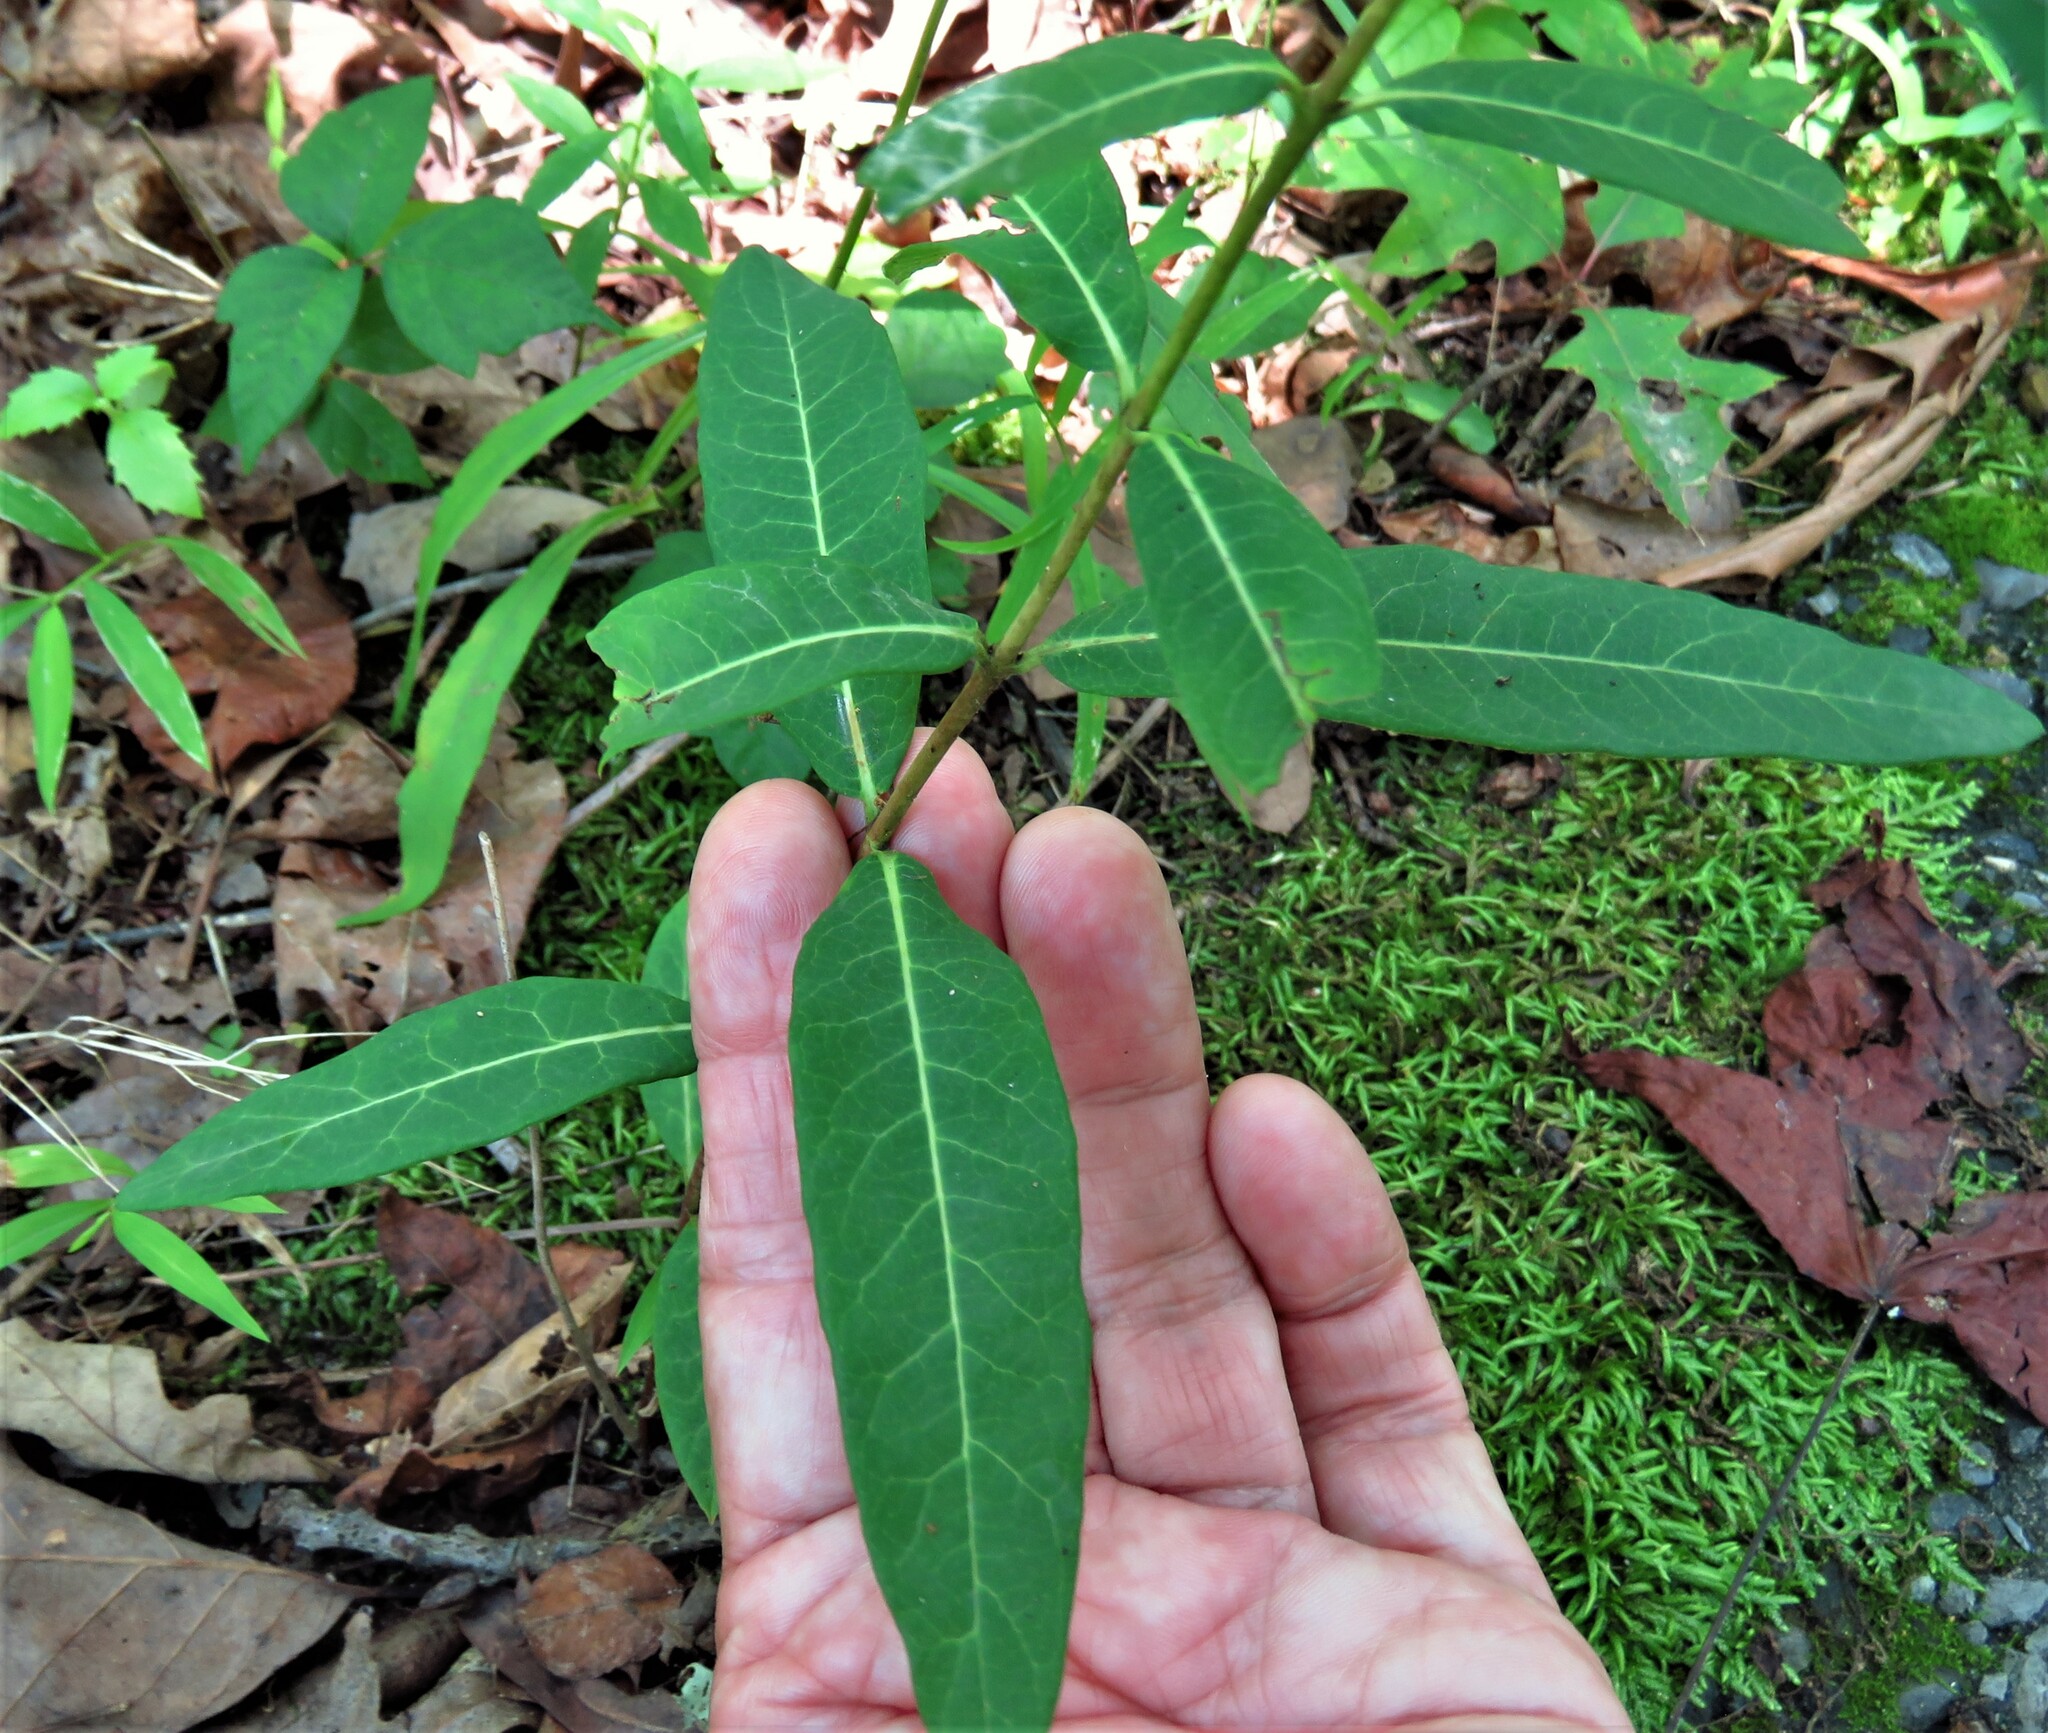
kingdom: Plantae
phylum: Tracheophyta
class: Magnoliopsida
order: Gentianales
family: Apocynaceae
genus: Apocynum
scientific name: Apocynum cannabinum
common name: Hemp dogbane
